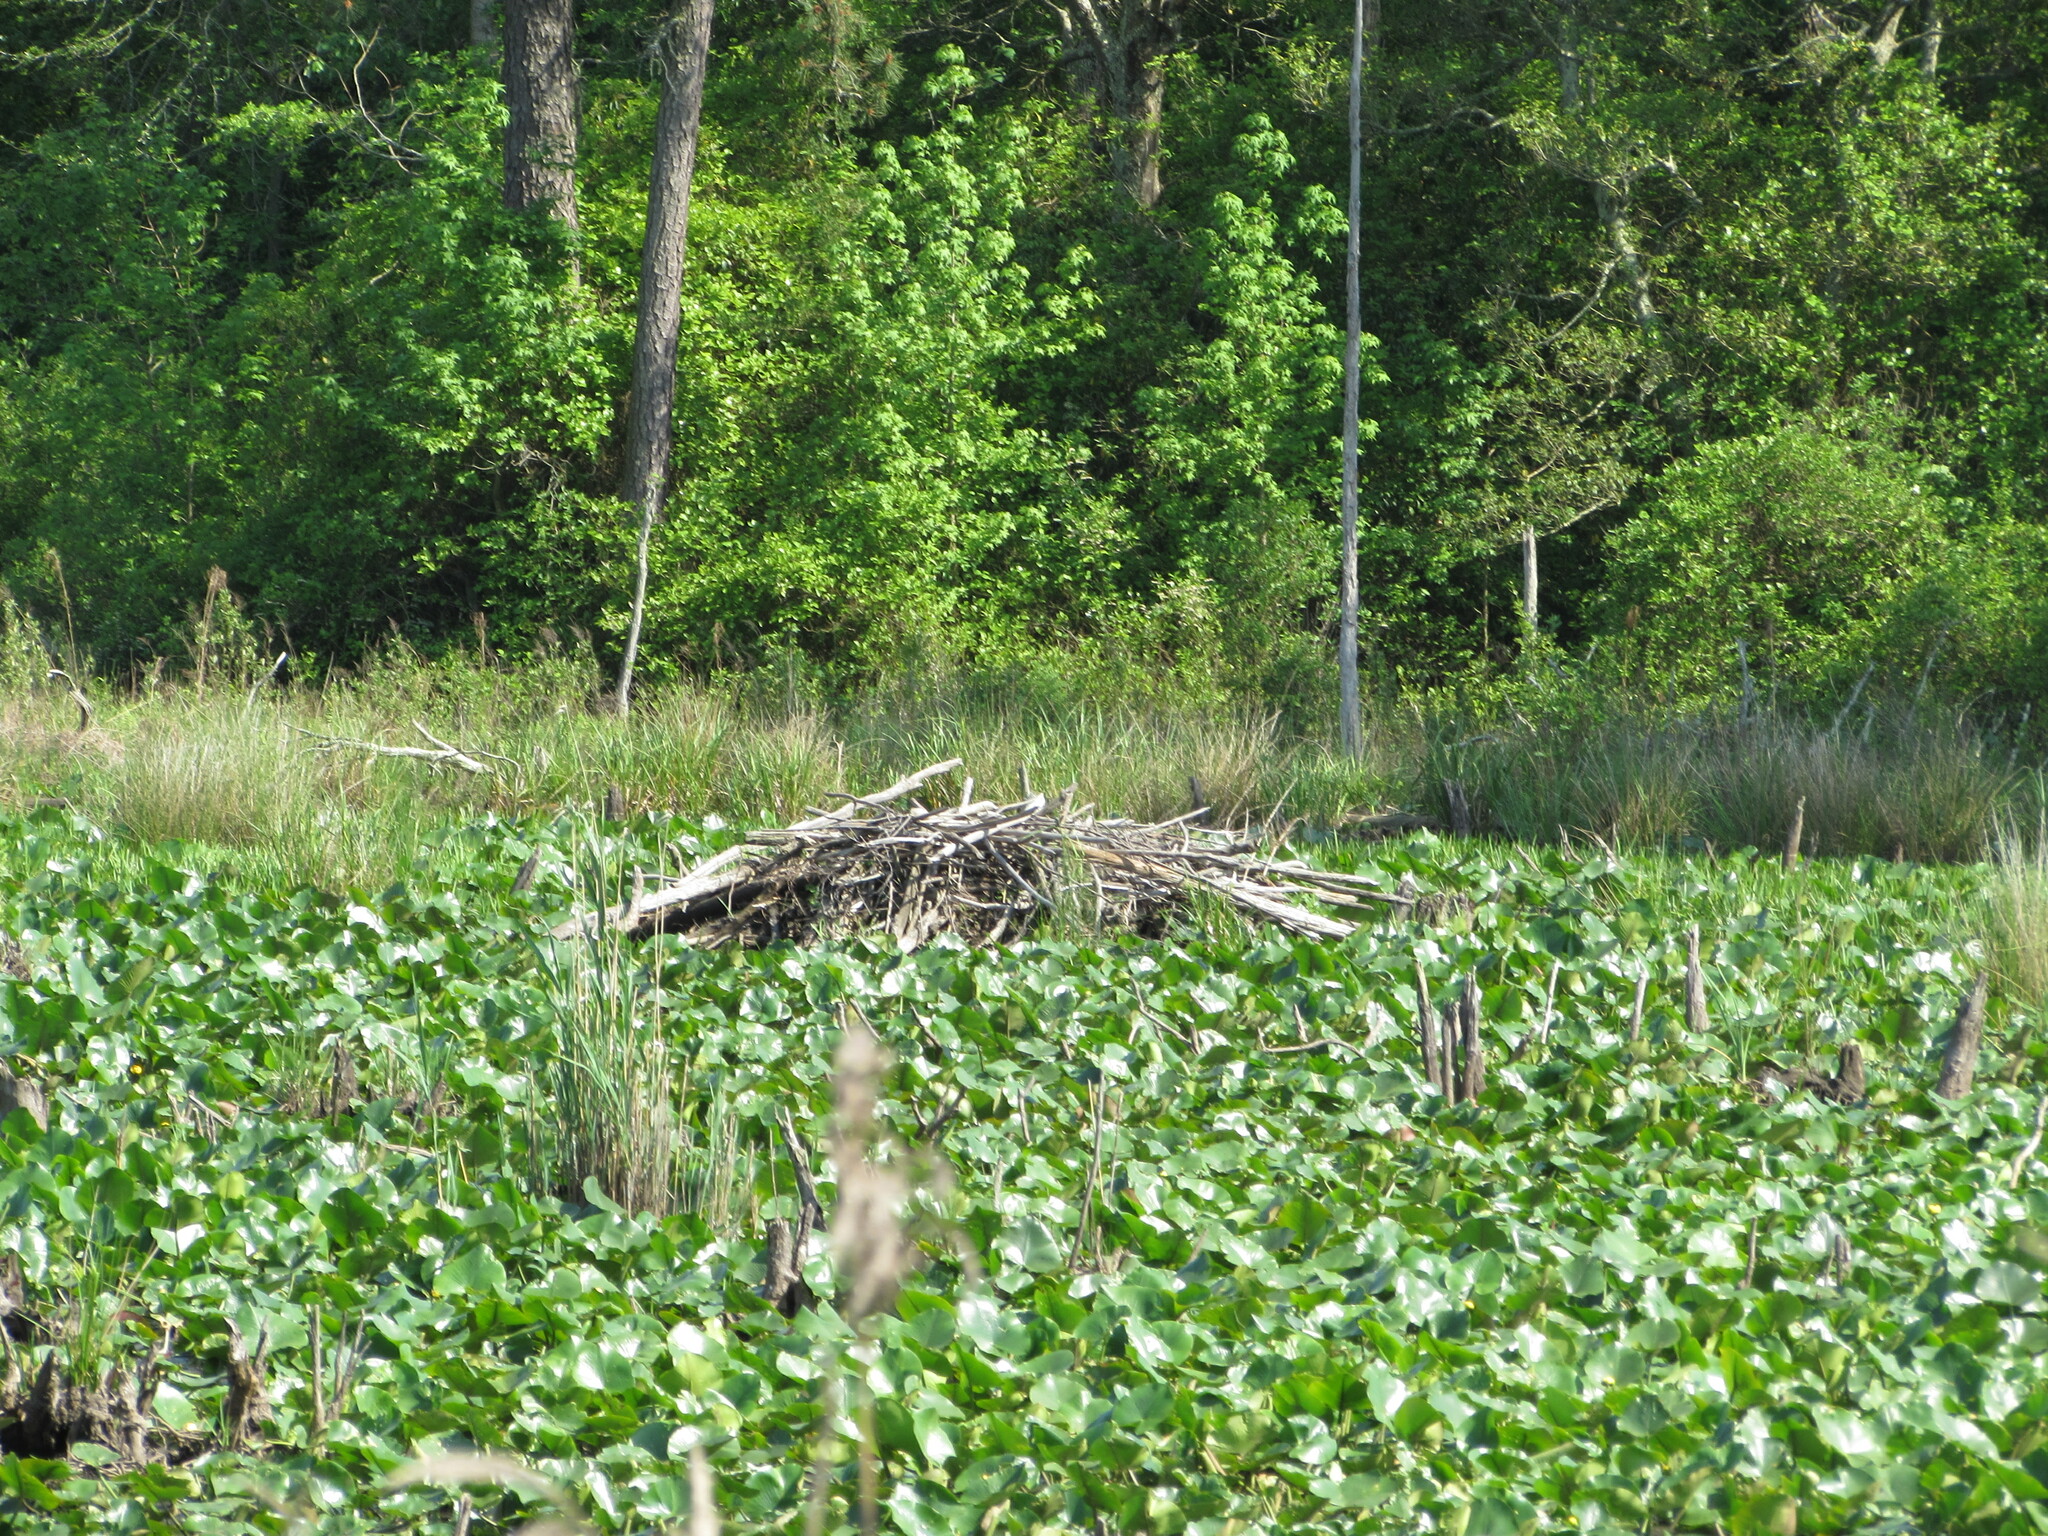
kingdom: Animalia
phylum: Chordata
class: Mammalia
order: Rodentia
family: Castoridae
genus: Castor
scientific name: Castor canadensis
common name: American beaver
